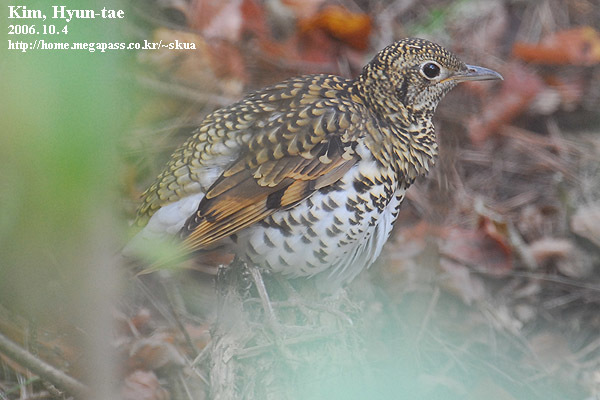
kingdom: Animalia
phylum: Chordata
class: Aves
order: Passeriformes
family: Turdidae
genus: Zoothera
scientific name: Zoothera aurea
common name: White's thrush
